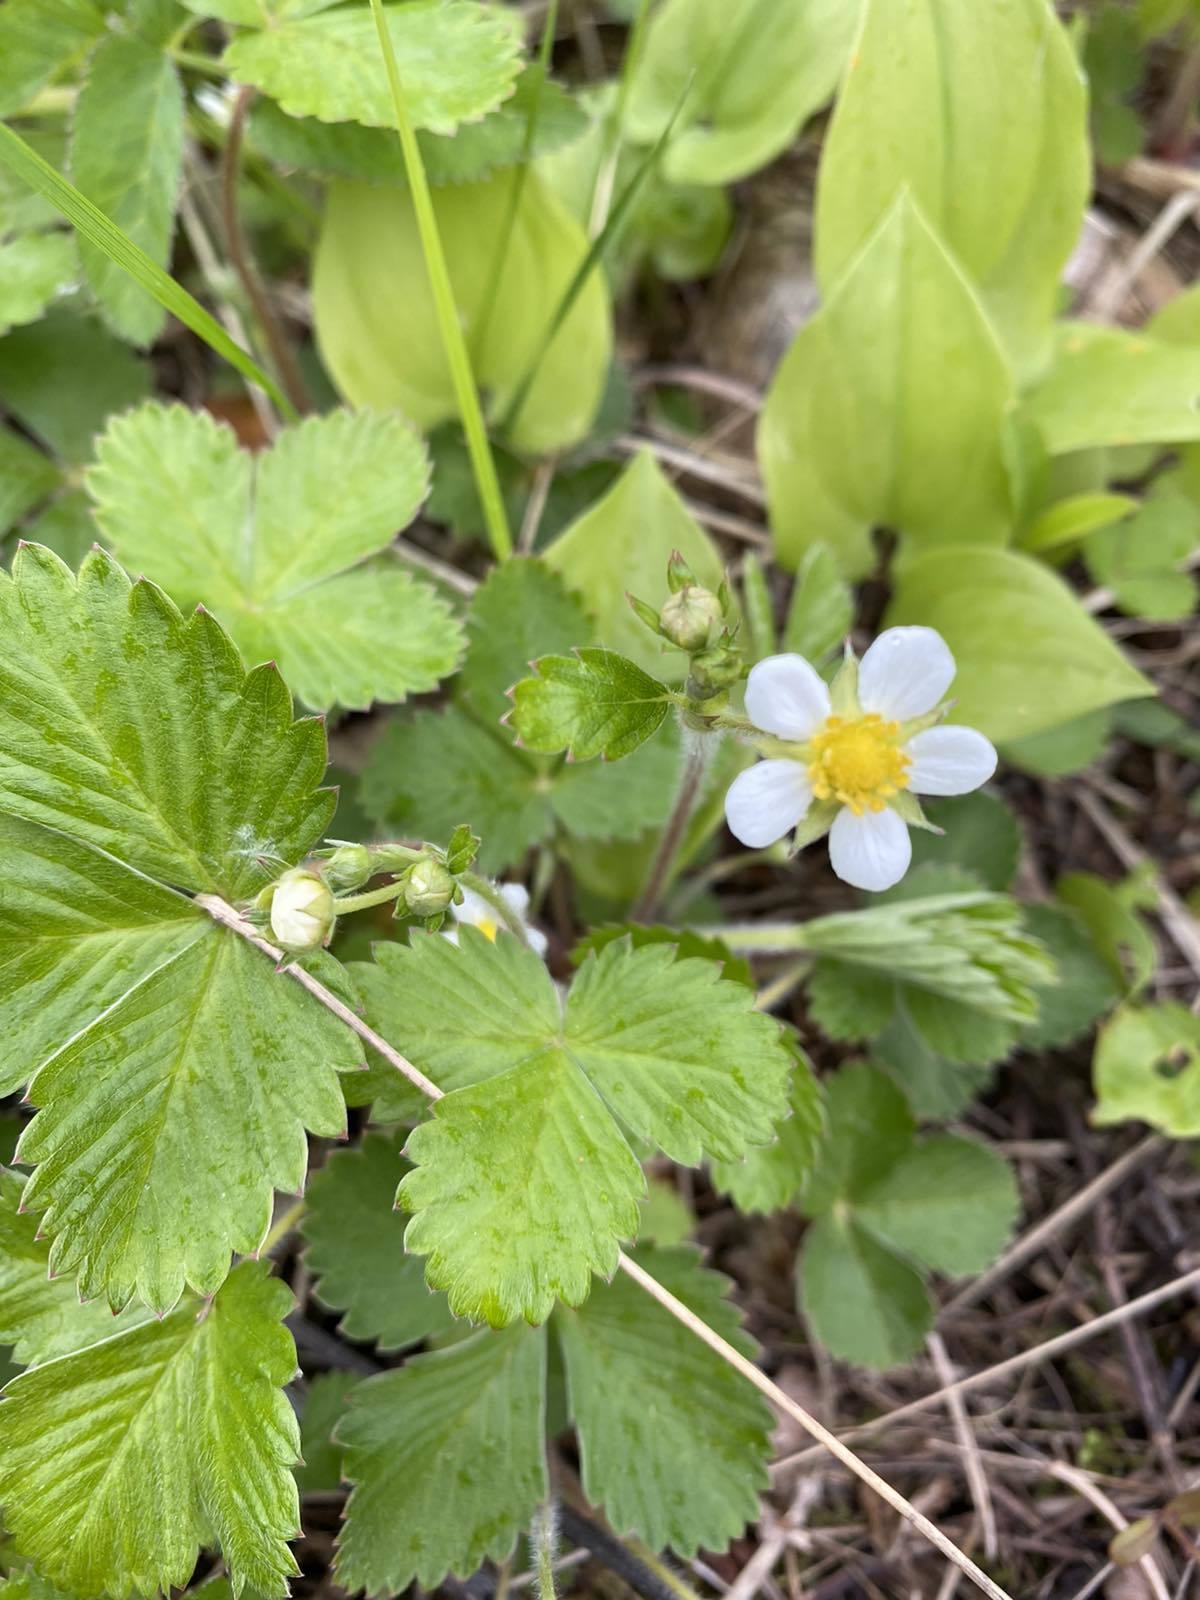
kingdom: Plantae
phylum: Tracheophyta
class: Magnoliopsida
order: Rosales
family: Rosaceae
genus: Fragaria
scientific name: Fragaria vesca
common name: Wild strawberry
